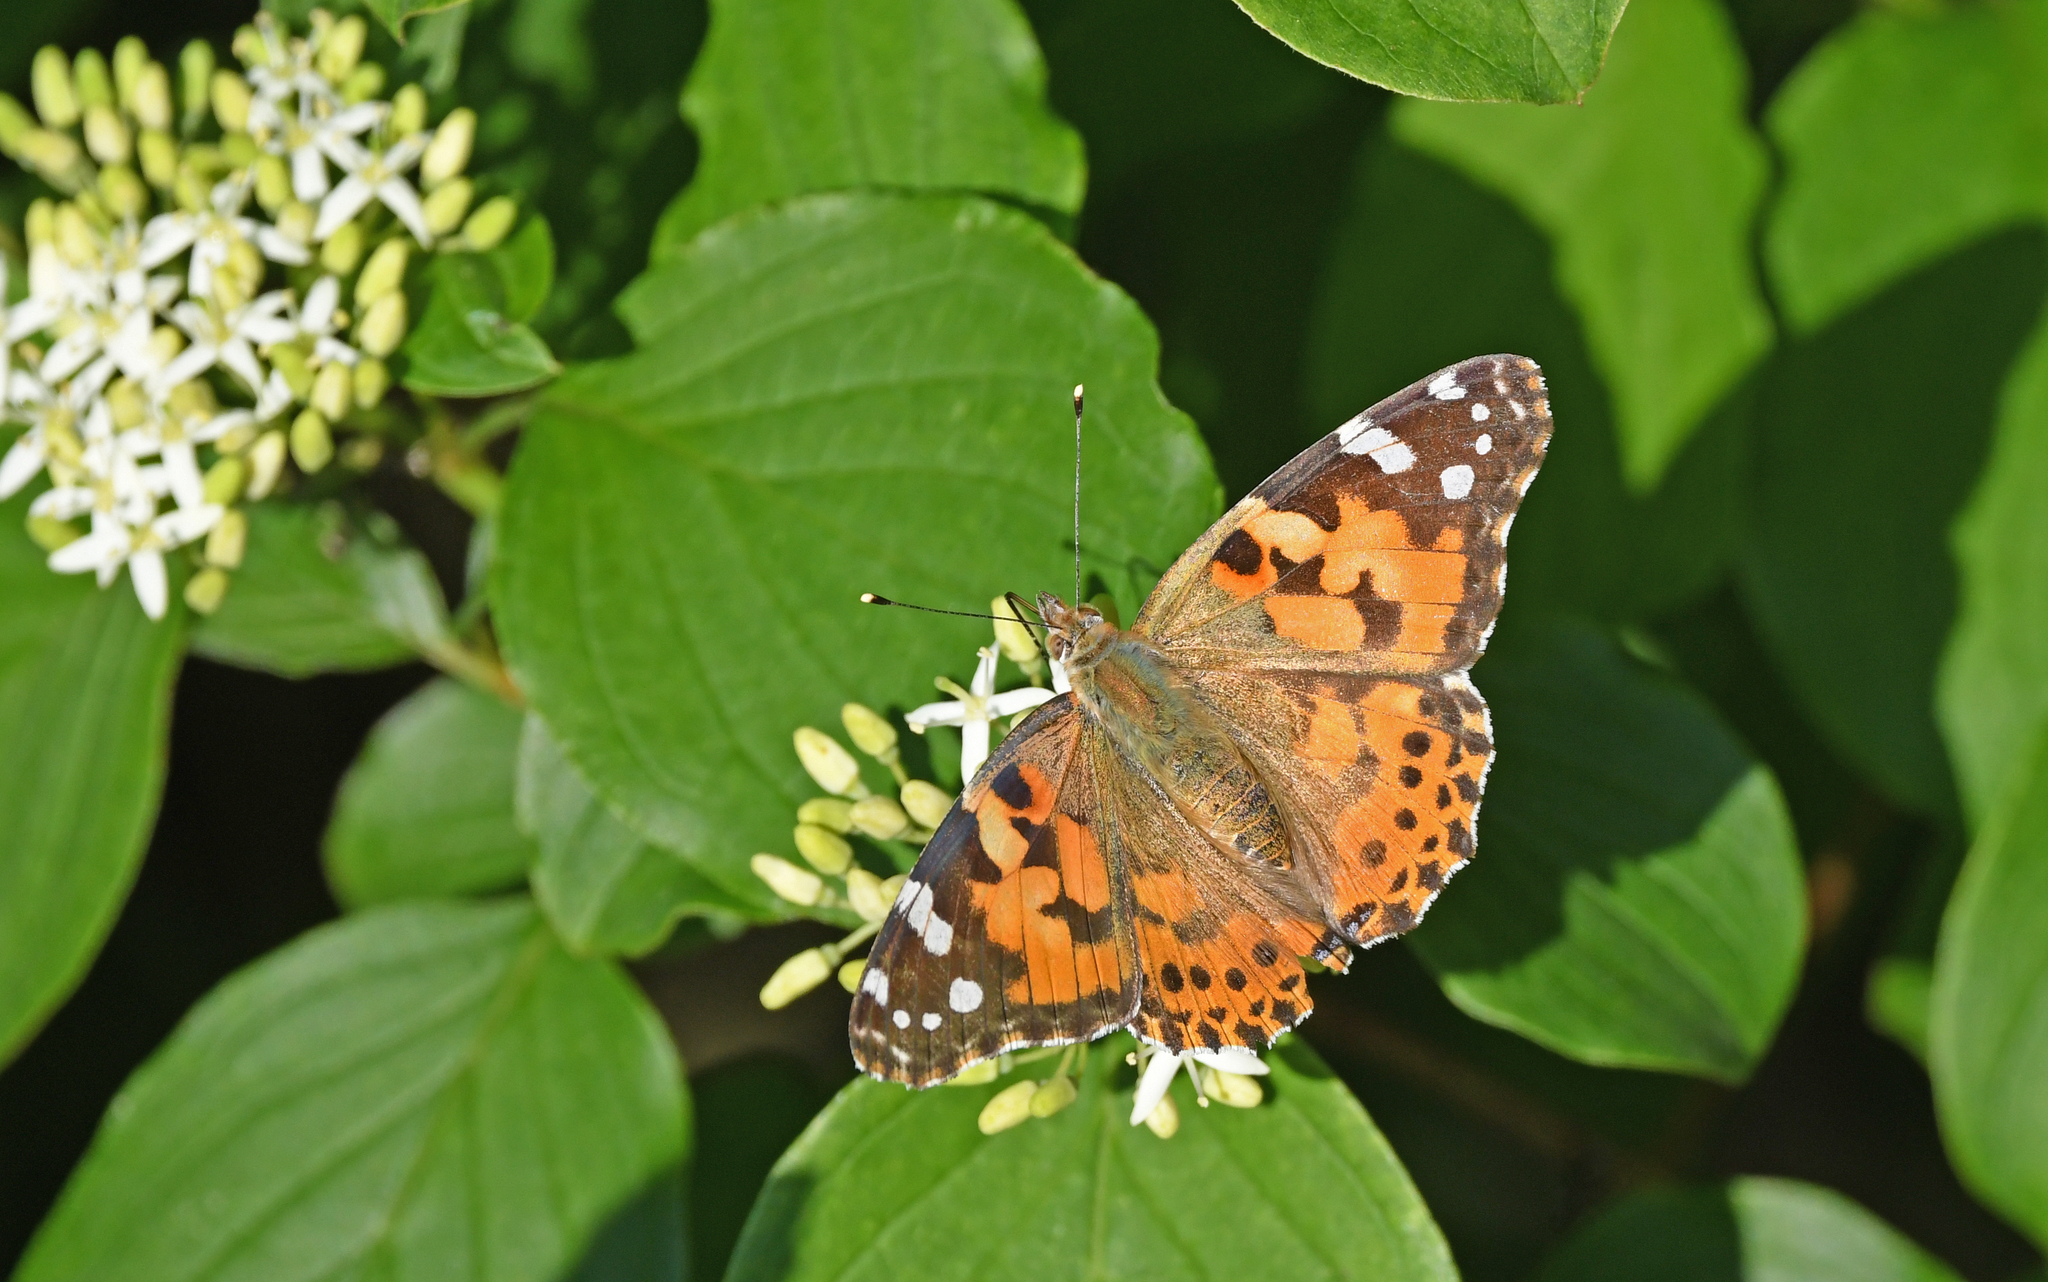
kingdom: Animalia
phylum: Arthropoda
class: Insecta
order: Lepidoptera
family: Nymphalidae
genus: Vanessa
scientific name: Vanessa cardui
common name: Painted lady
